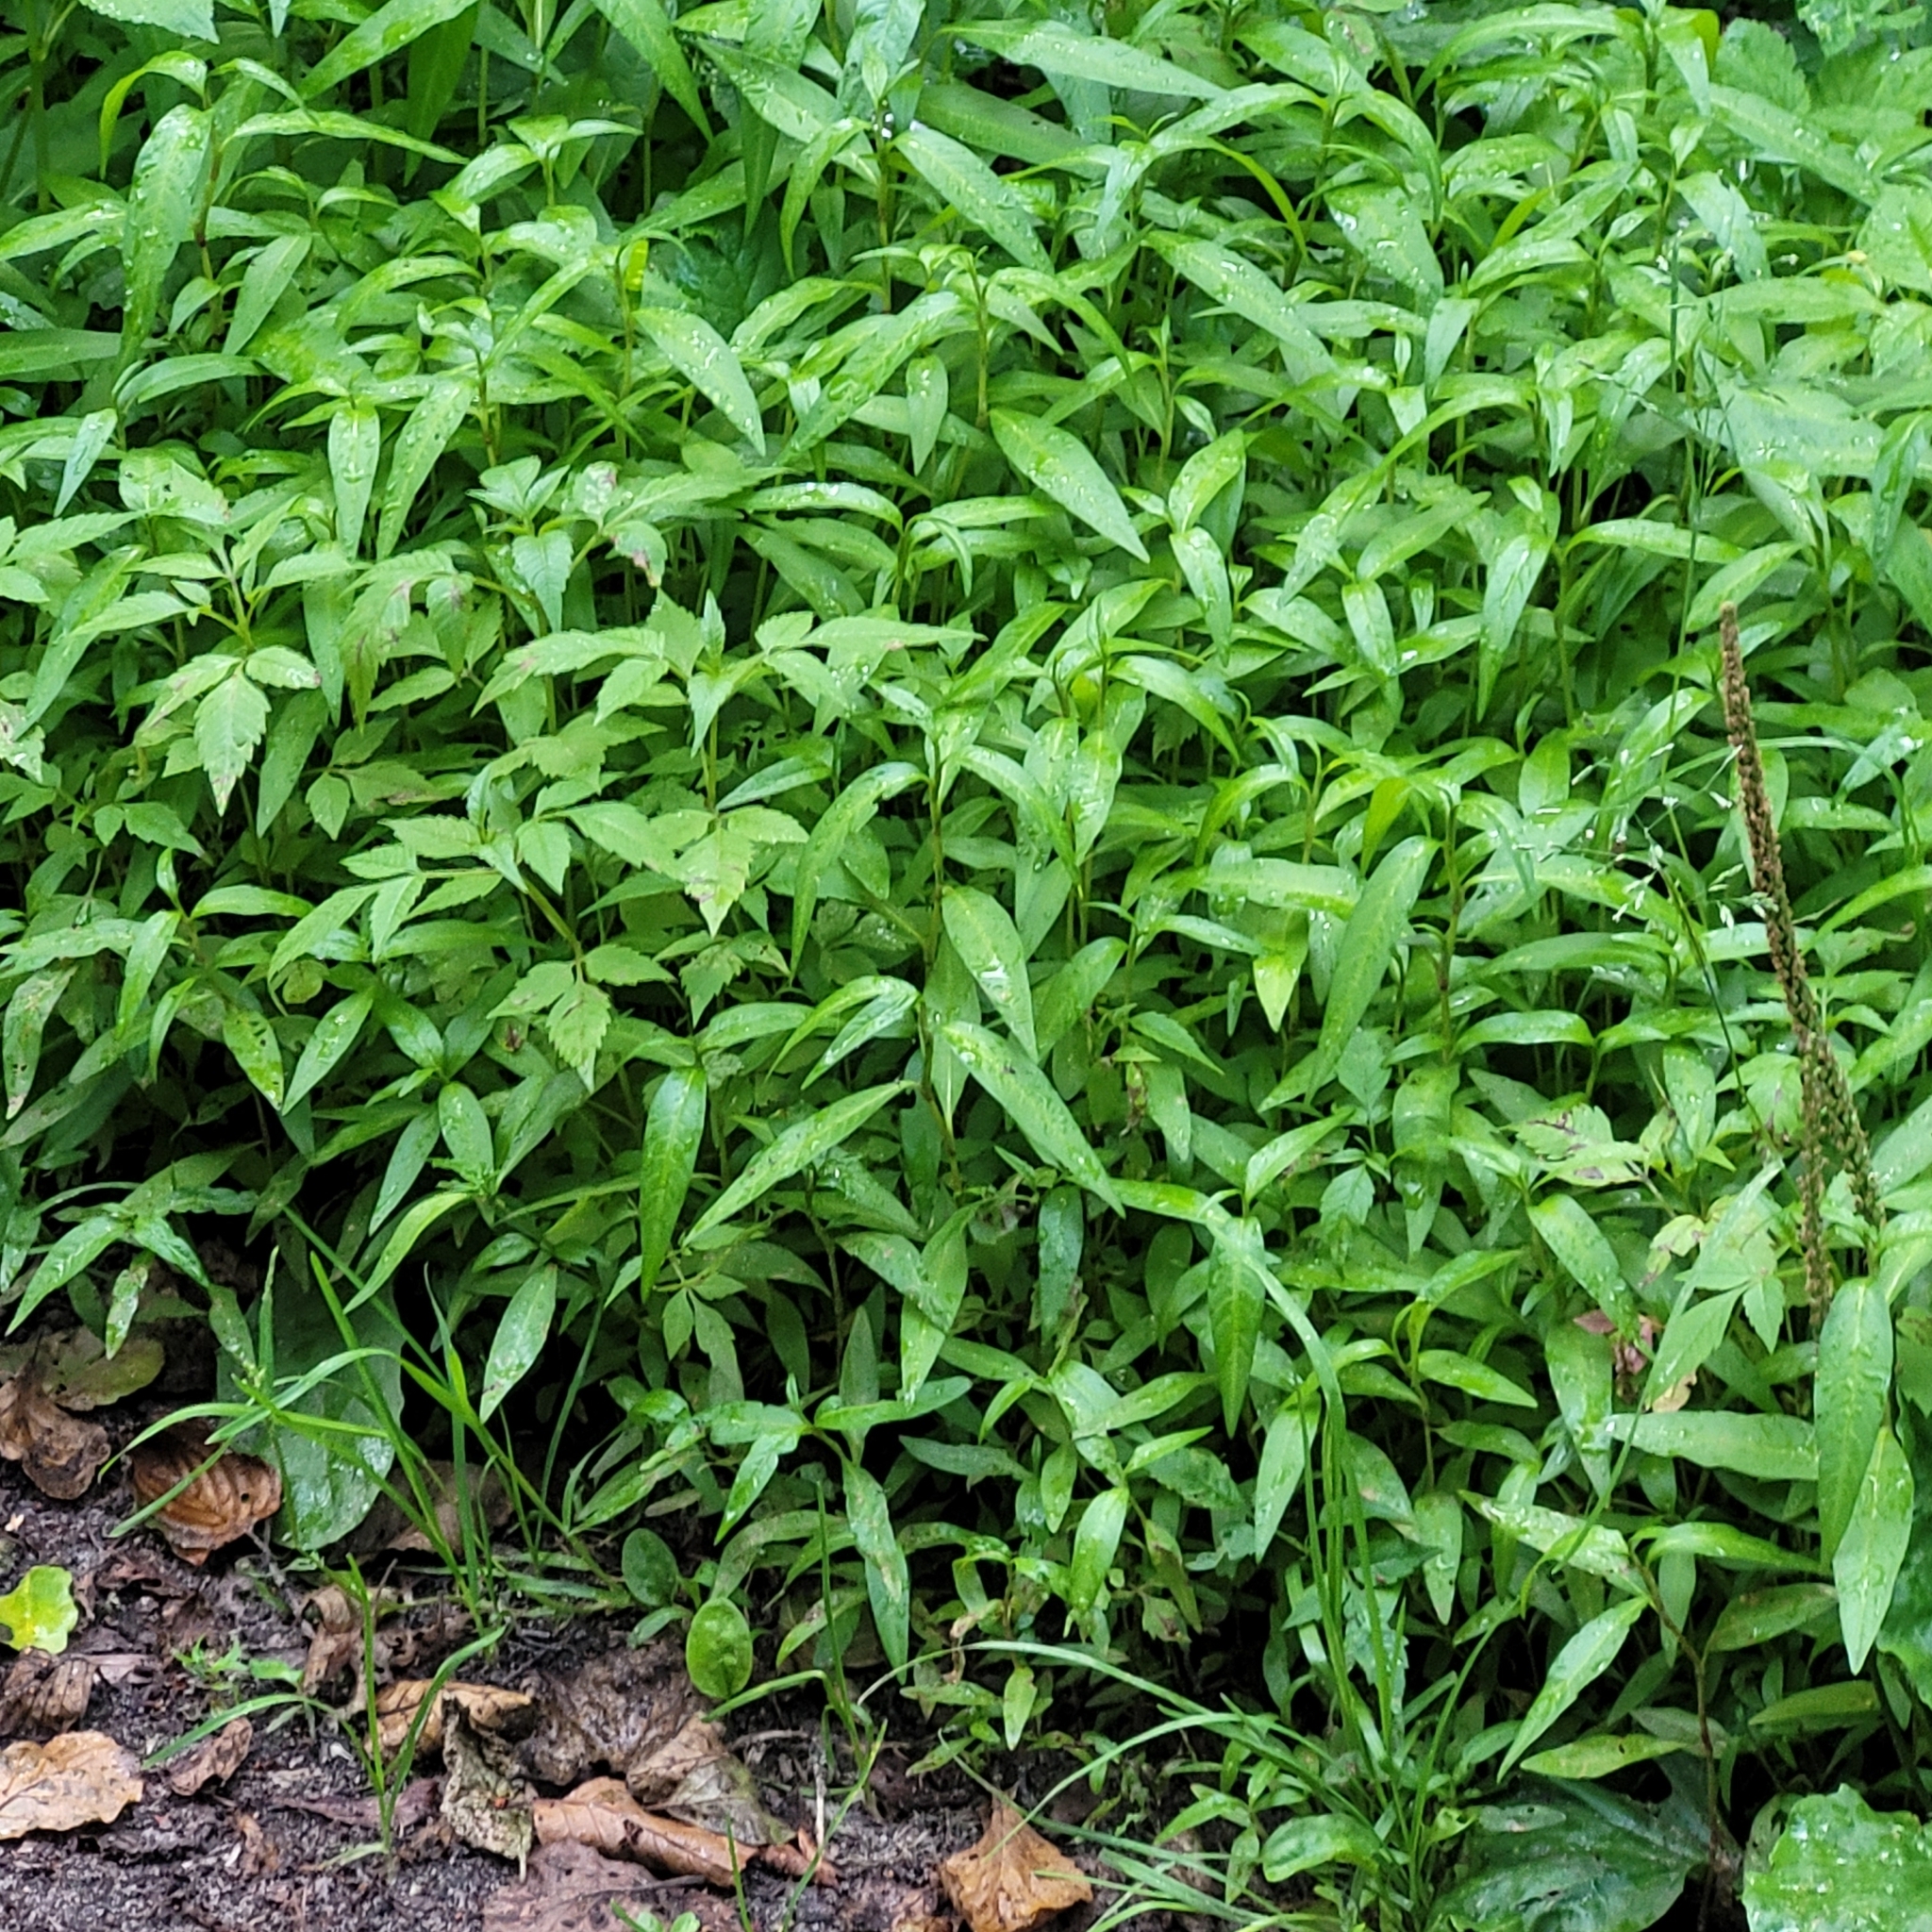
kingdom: Plantae
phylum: Tracheophyta
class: Magnoliopsida
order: Caryophyllales
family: Polygonaceae
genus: Persicaria
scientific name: Persicaria hydropiper
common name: Water-pepper
